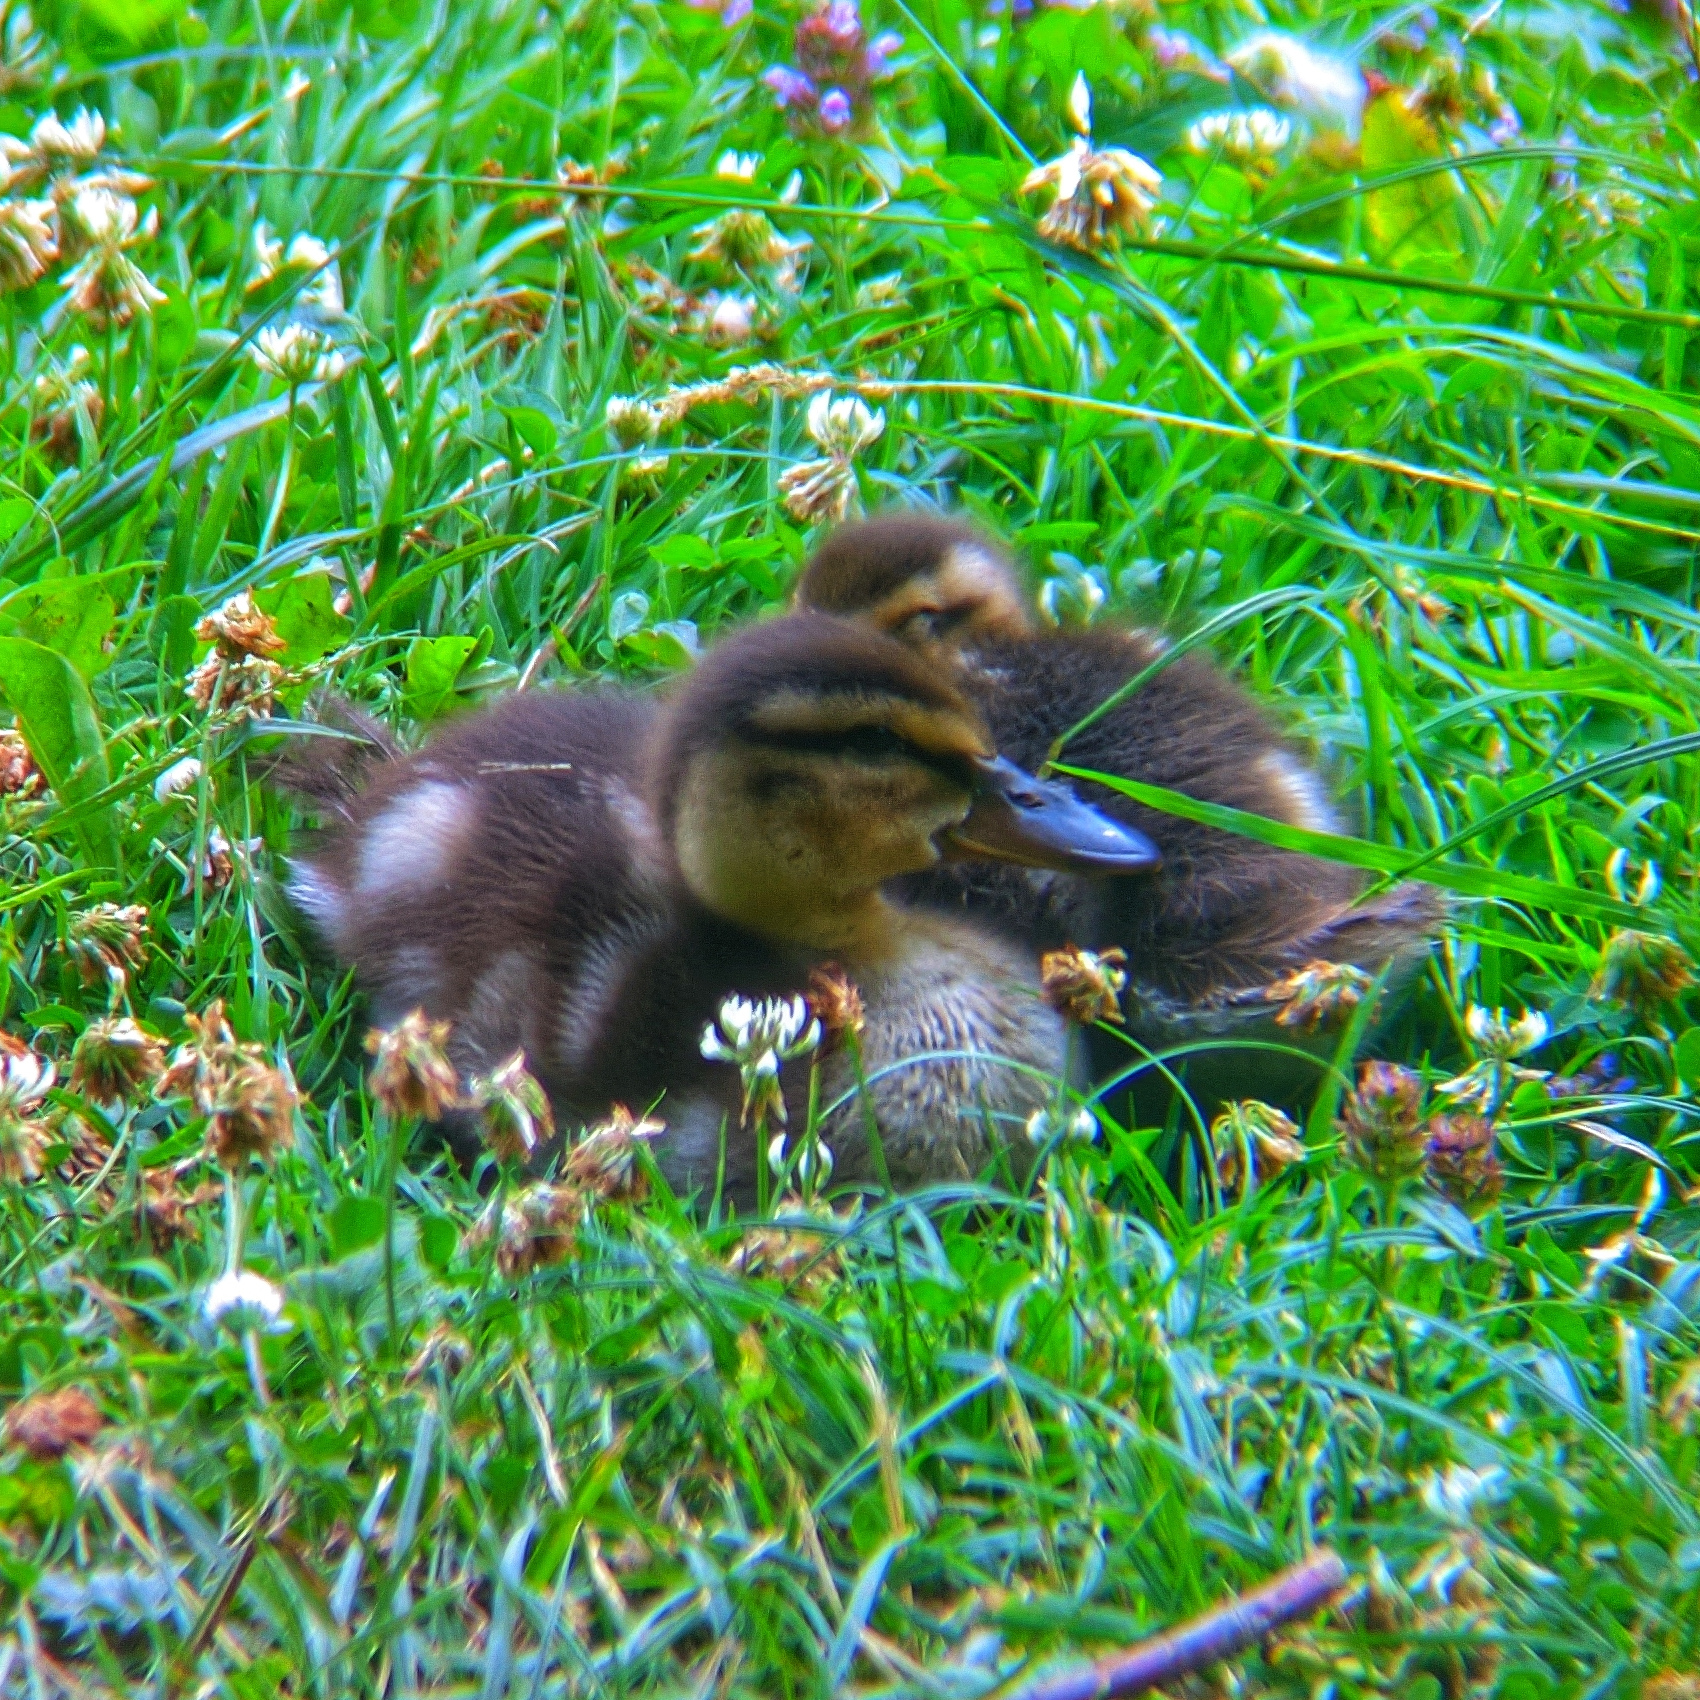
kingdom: Animalia
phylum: Chordata
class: Aves
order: Anseriformes
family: Anatidae
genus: Anas
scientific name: Anas platyrhynchos
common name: Mallard
